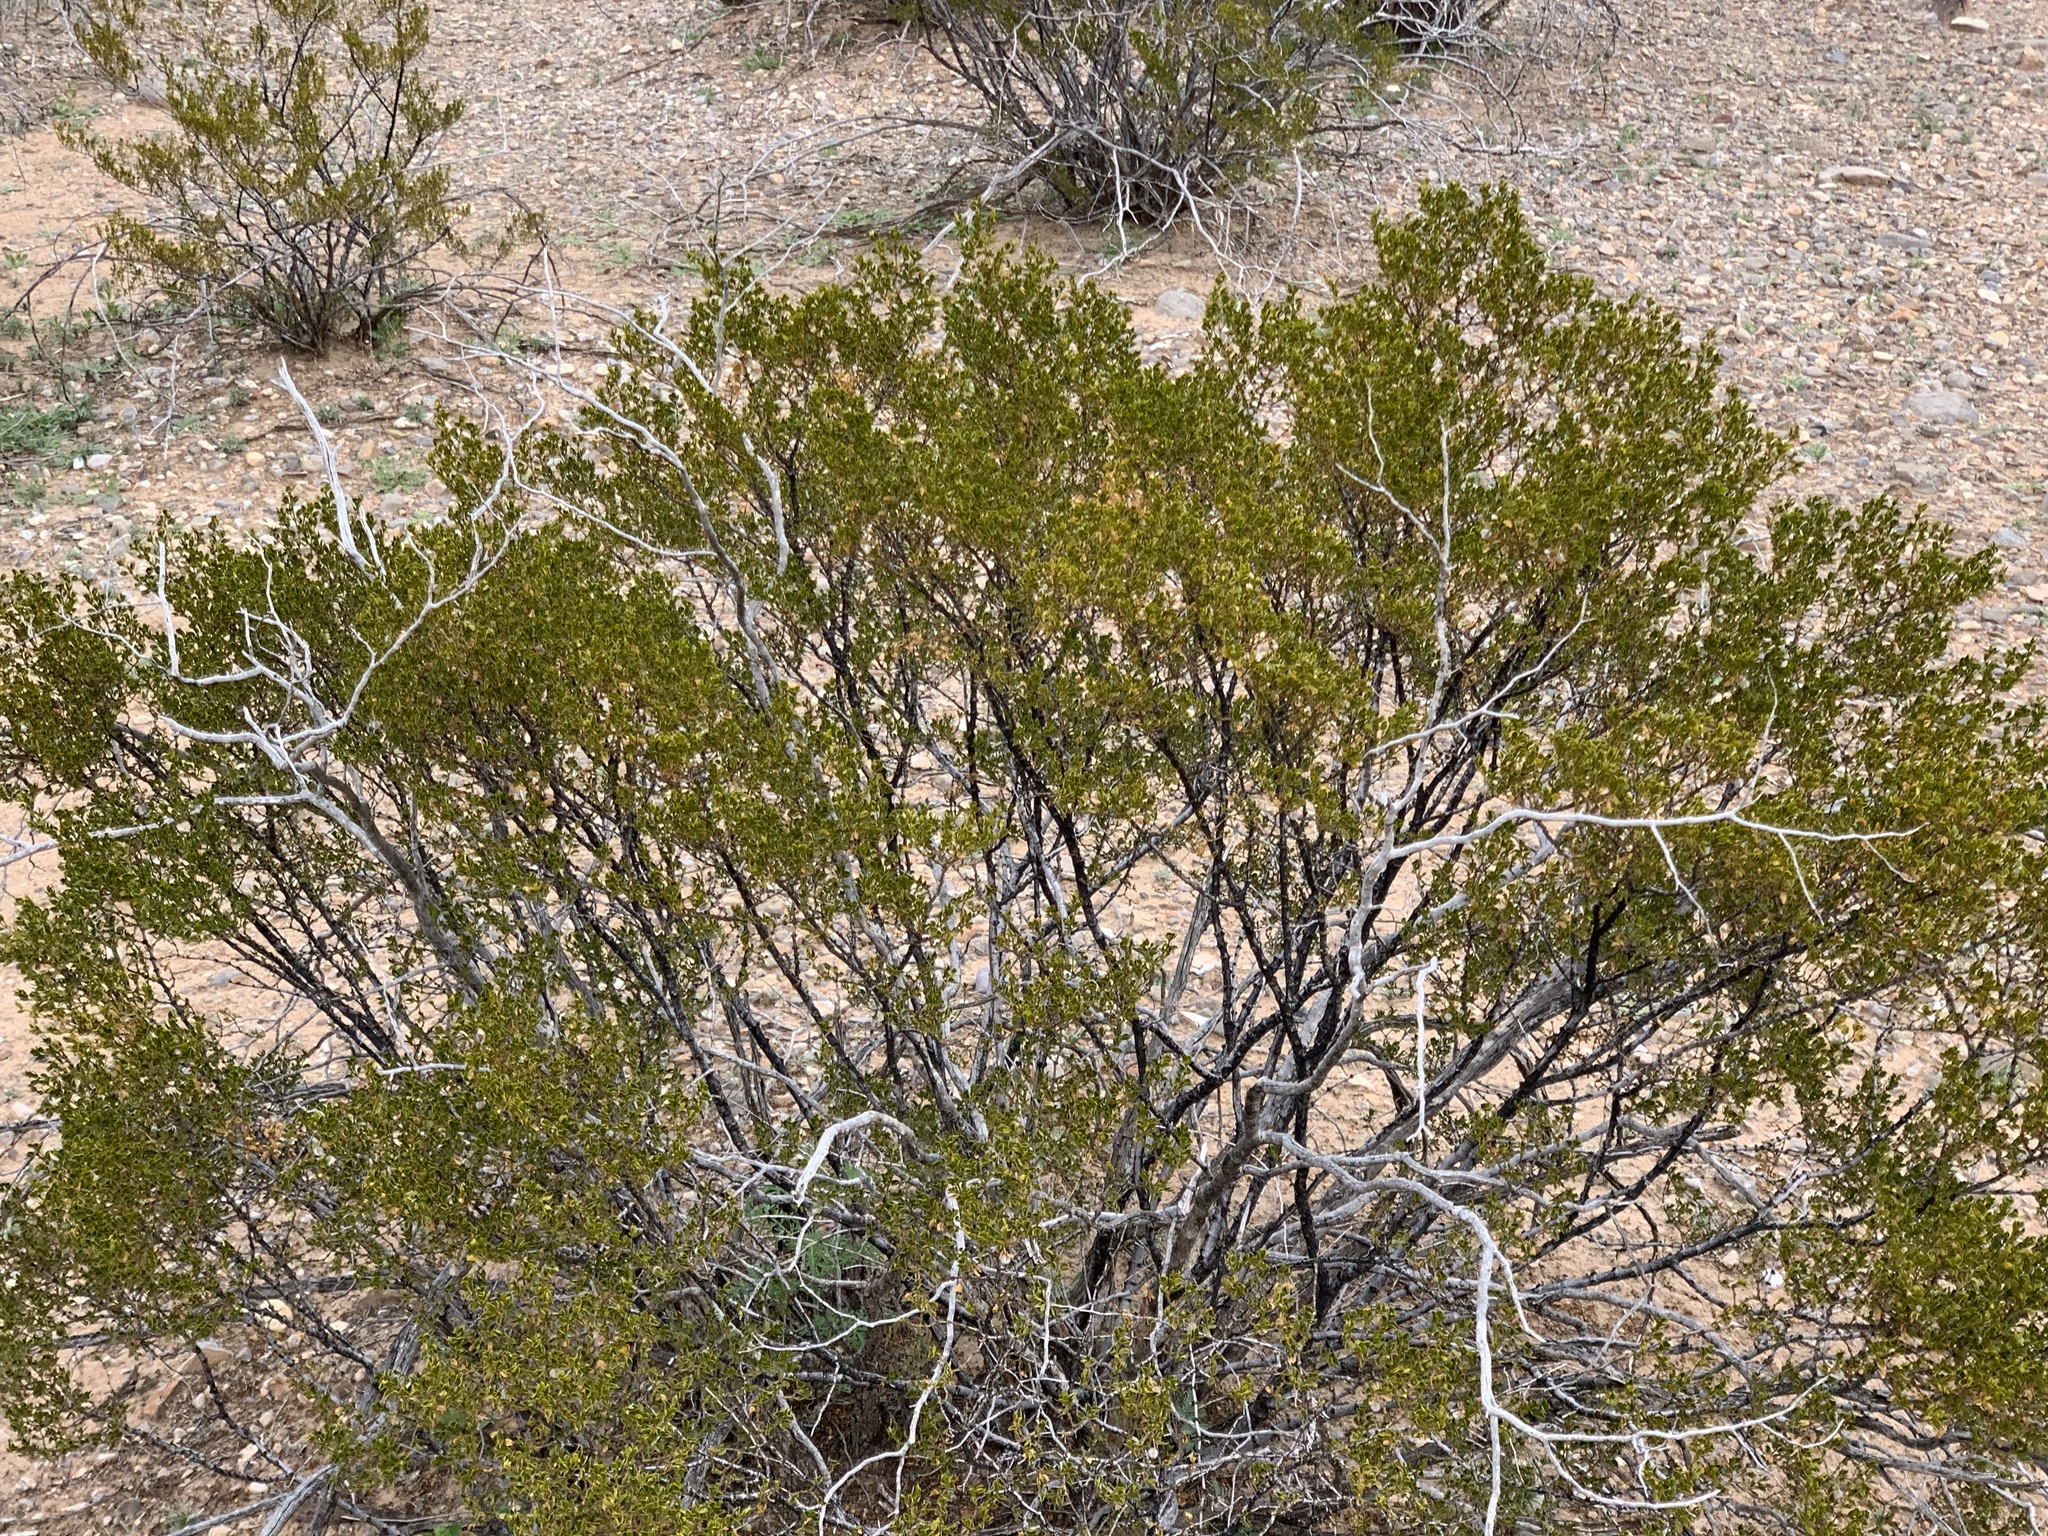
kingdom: Plantae
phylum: Tracheophyta
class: Magnoliopsida
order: Zygophyllales
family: Zygophyllaceae
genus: Larrea
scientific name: Larrea tridentata
